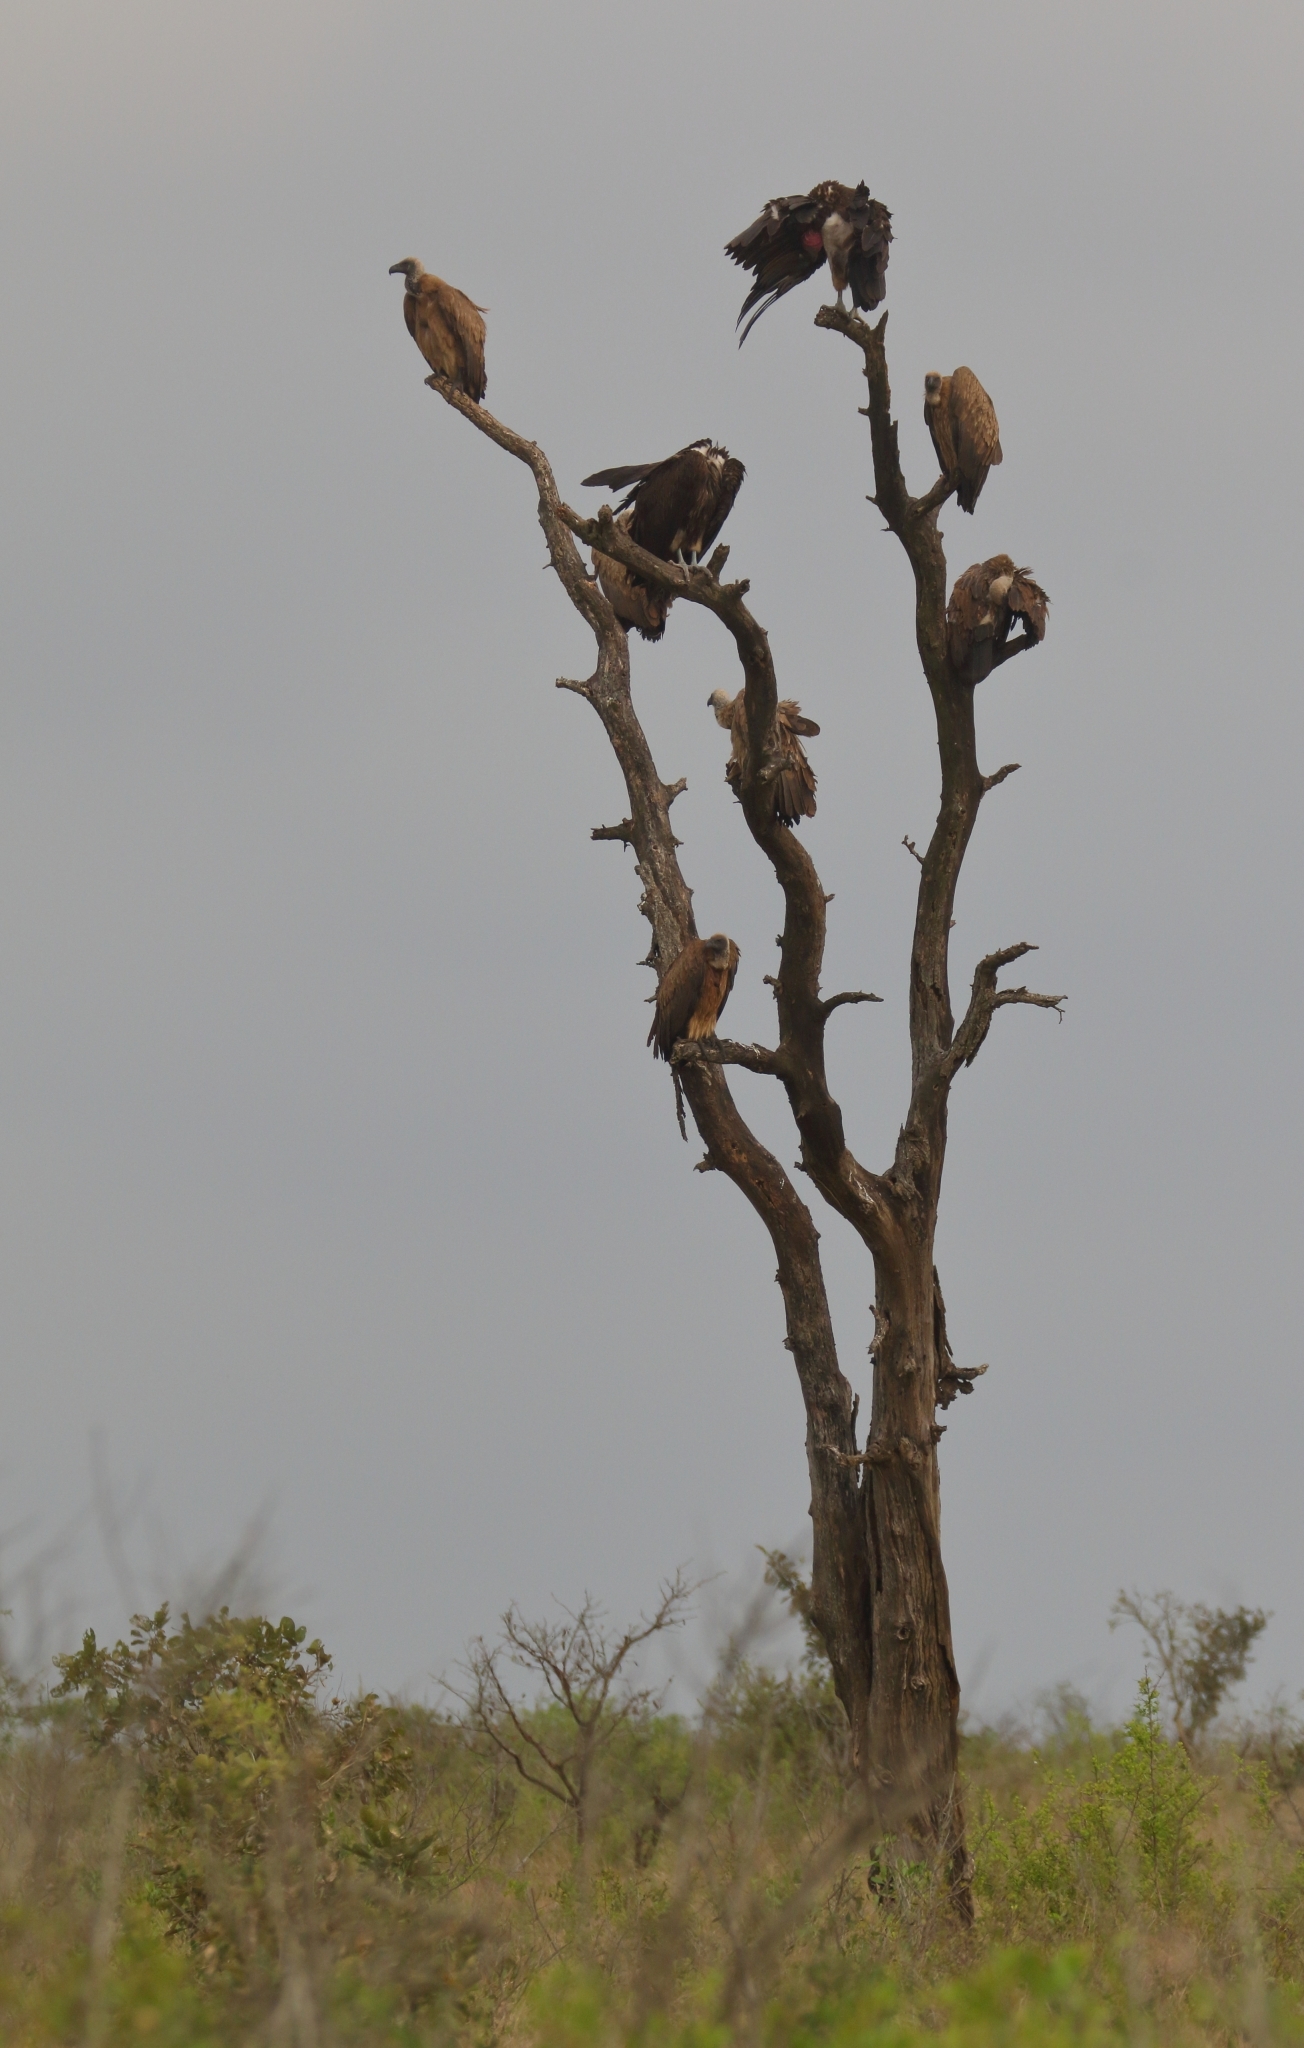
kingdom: Animalia
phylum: Chordata
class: Aves
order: Accipitriformes
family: Accipitridae
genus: Gyps
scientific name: Gyps africanus
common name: White-backed vulture
